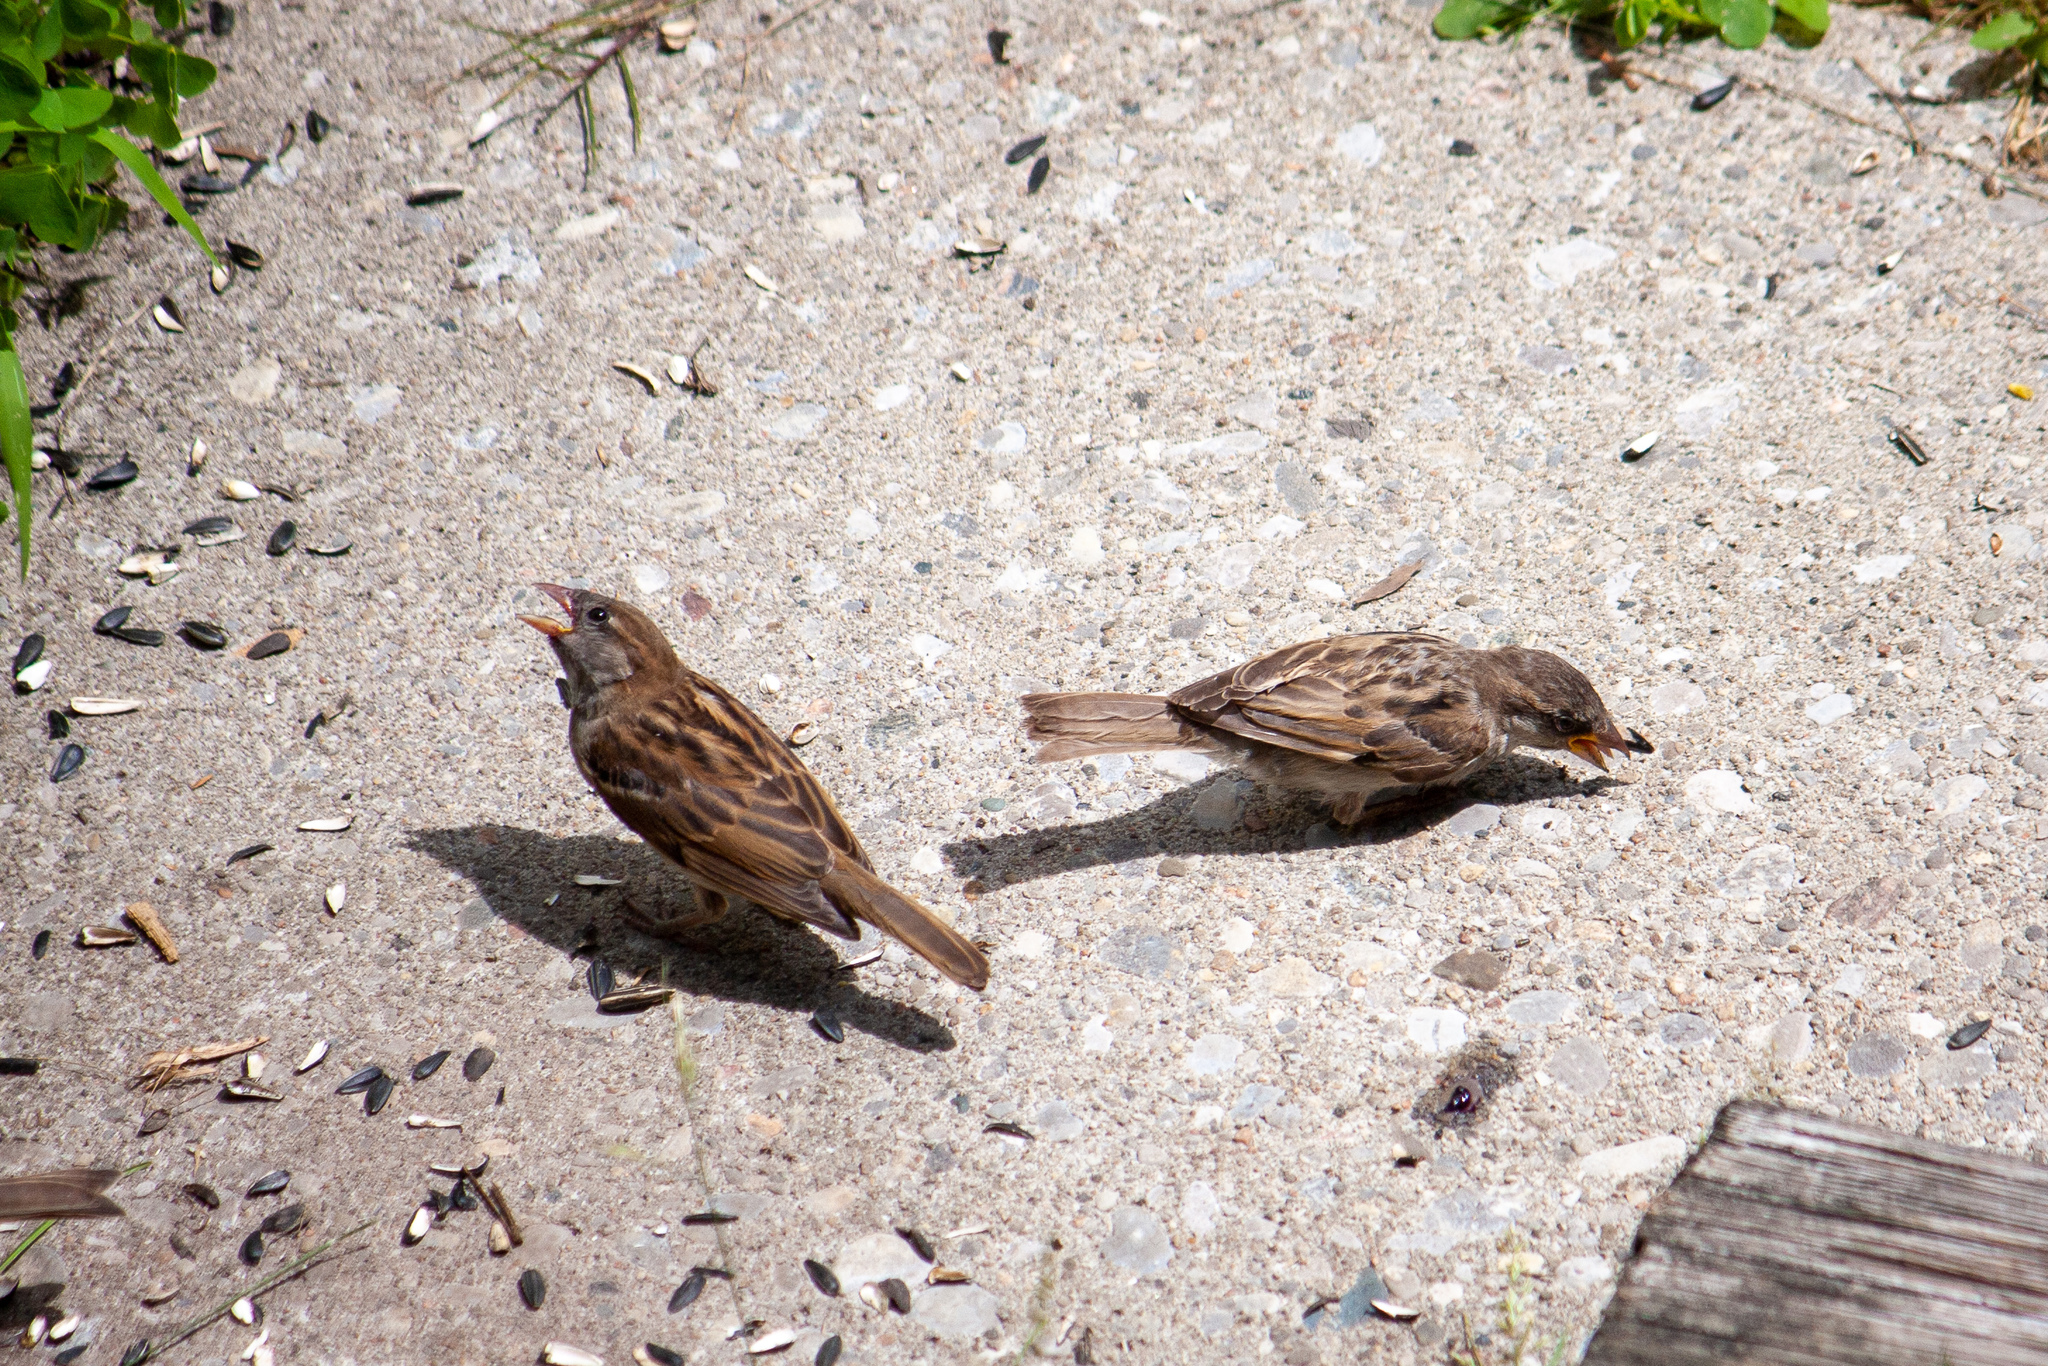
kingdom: Animalia
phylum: Chordata
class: Aves
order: Passeriformes
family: Passeridae
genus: Passer
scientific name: Passer domesticus
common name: House sparrow
